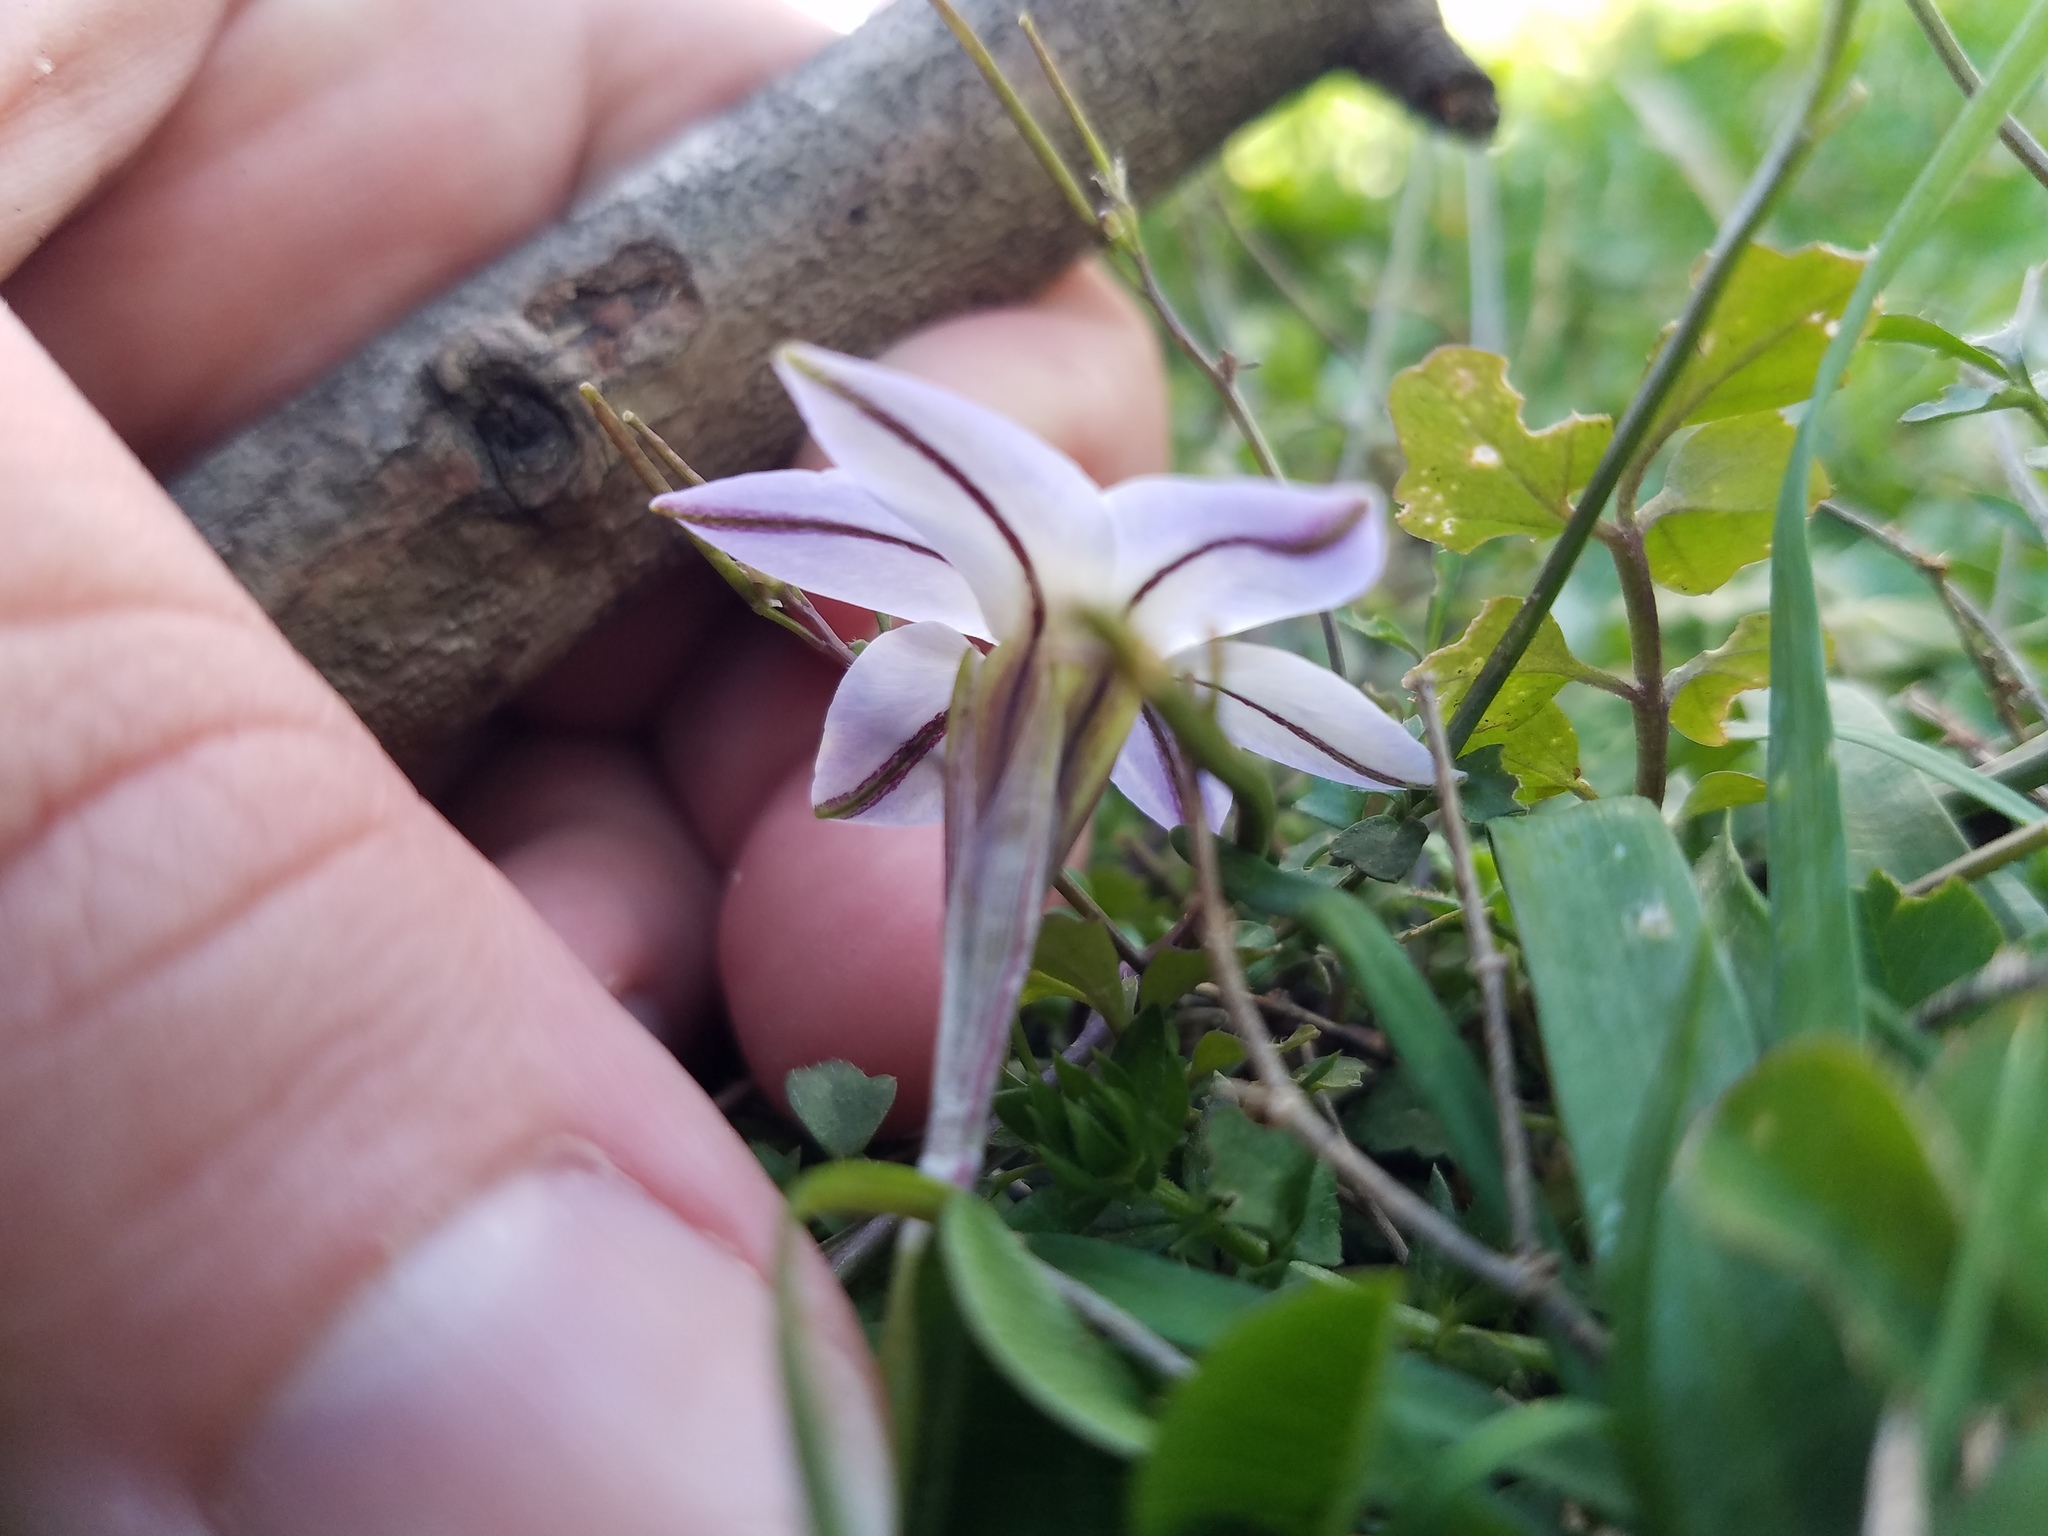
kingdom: Plantae
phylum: Tracheophyta
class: Liliopsida
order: Asparagales
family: Amaryllidaceae
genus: Ipheion
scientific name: Ipheion uniflorum
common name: Spring starflower
